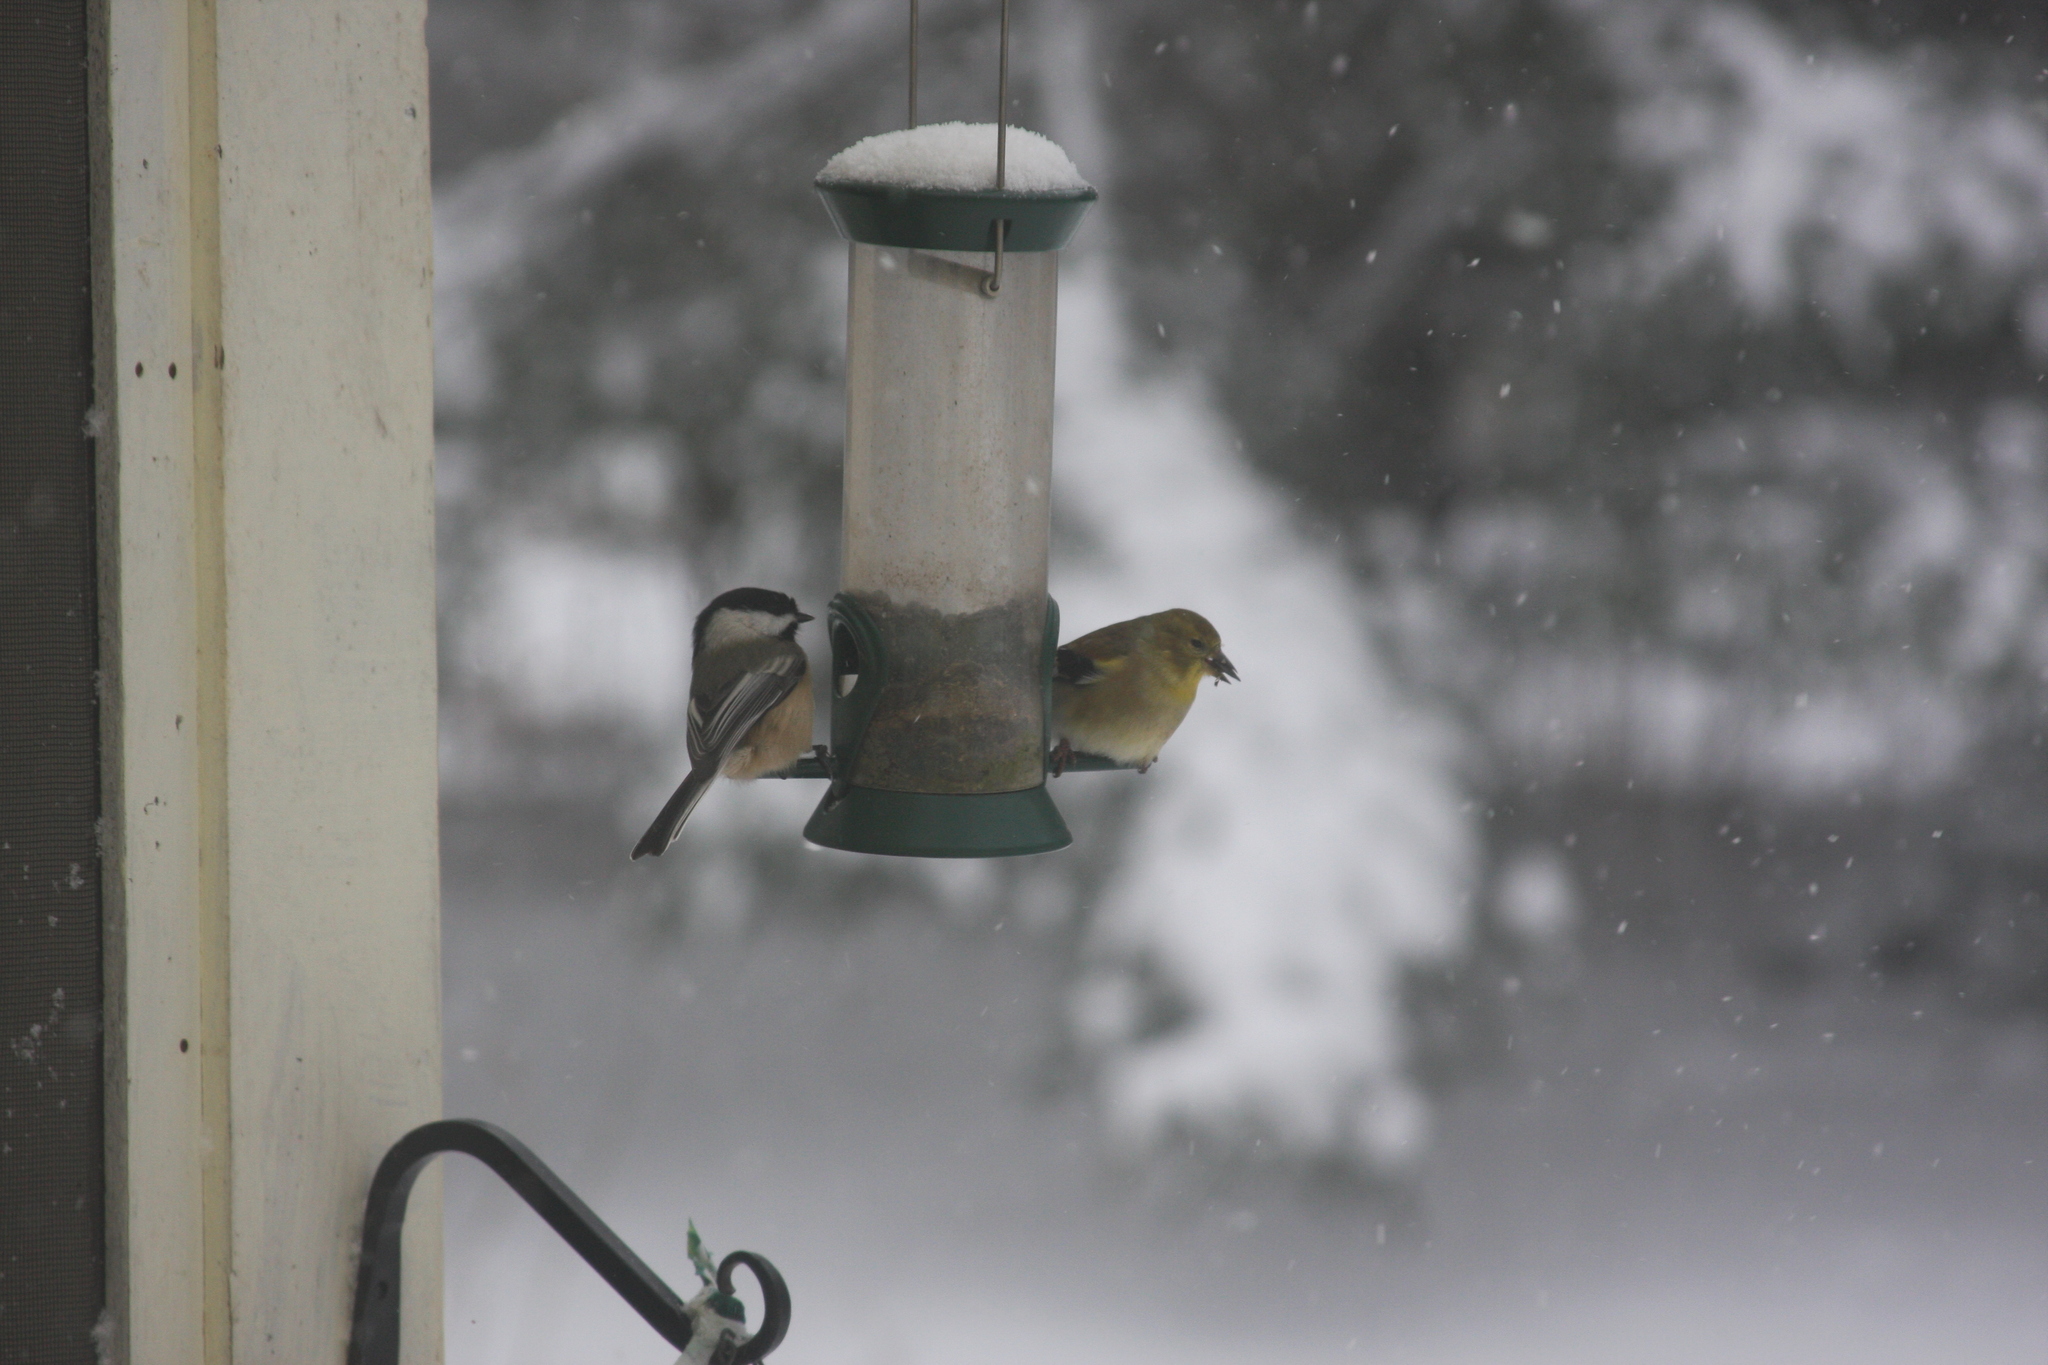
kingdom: Animalia
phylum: Chordata
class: Aves
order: Passeriformes
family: Paridae
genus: Poecile
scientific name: Poecile atricapillus
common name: Black-capped chickadee
